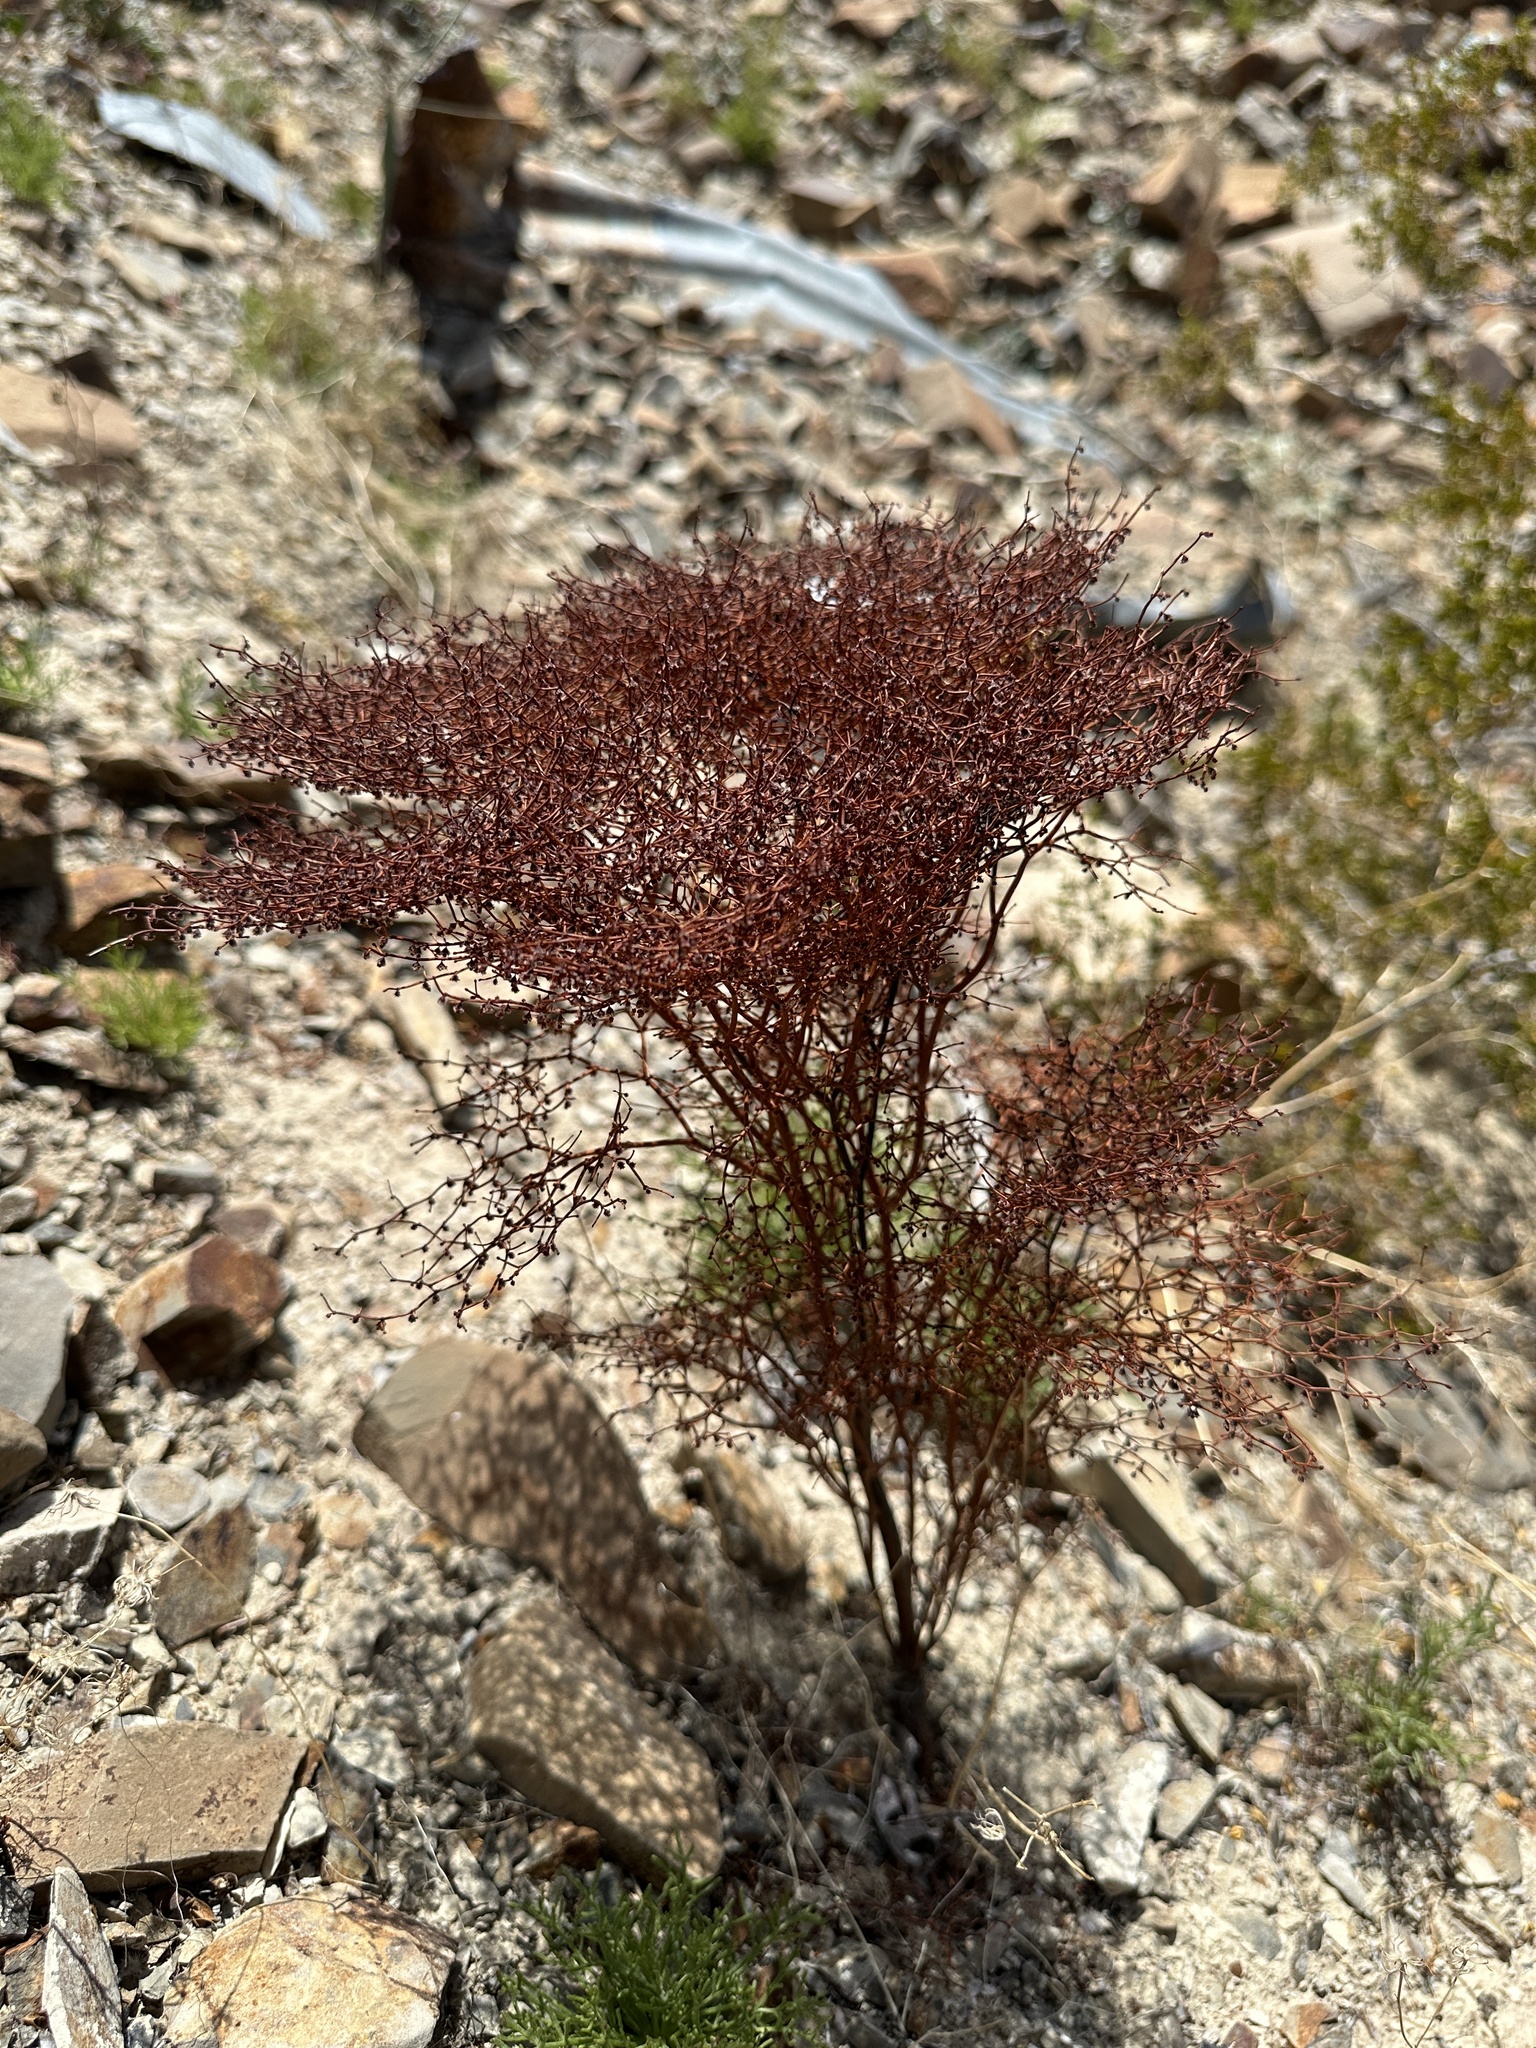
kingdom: Plantae
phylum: Tracheophyta
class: Magnoliopsida
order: Caryophyllales
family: Polygonaceae
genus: Eriogonum
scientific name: Eriogonum rixfordii
